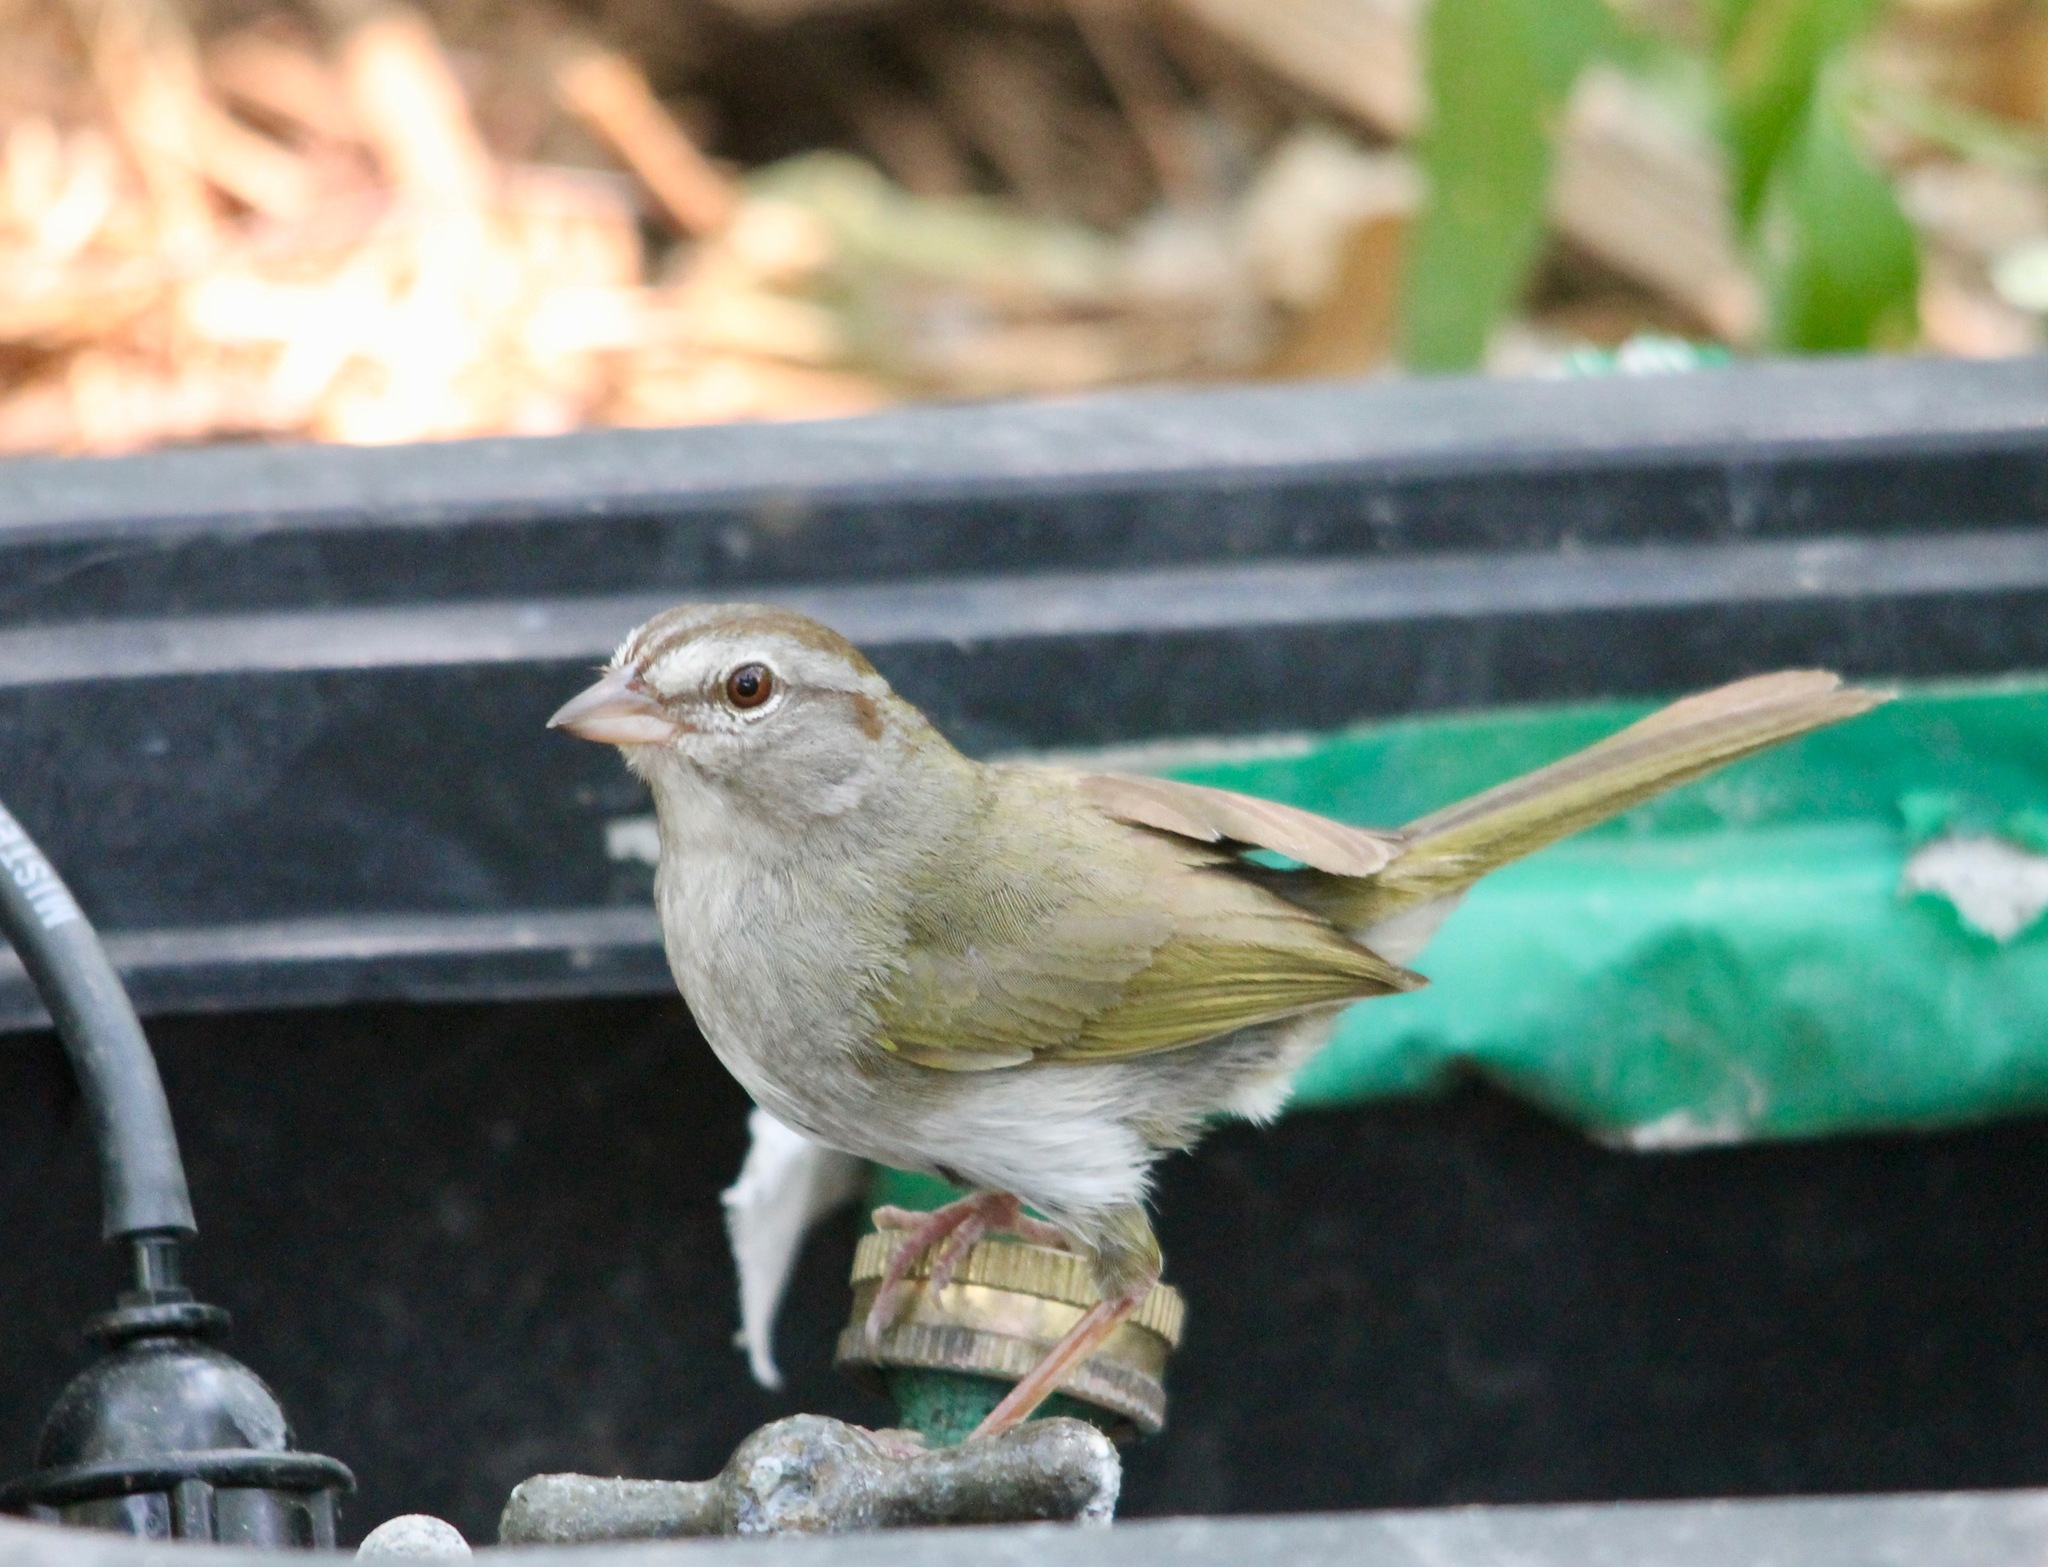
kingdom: Animalia
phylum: Chordata
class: Aves
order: Passeriformes
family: Passerellidae
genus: Arremonops
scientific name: Arremonops rufivirgatus
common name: Olive sparrow
